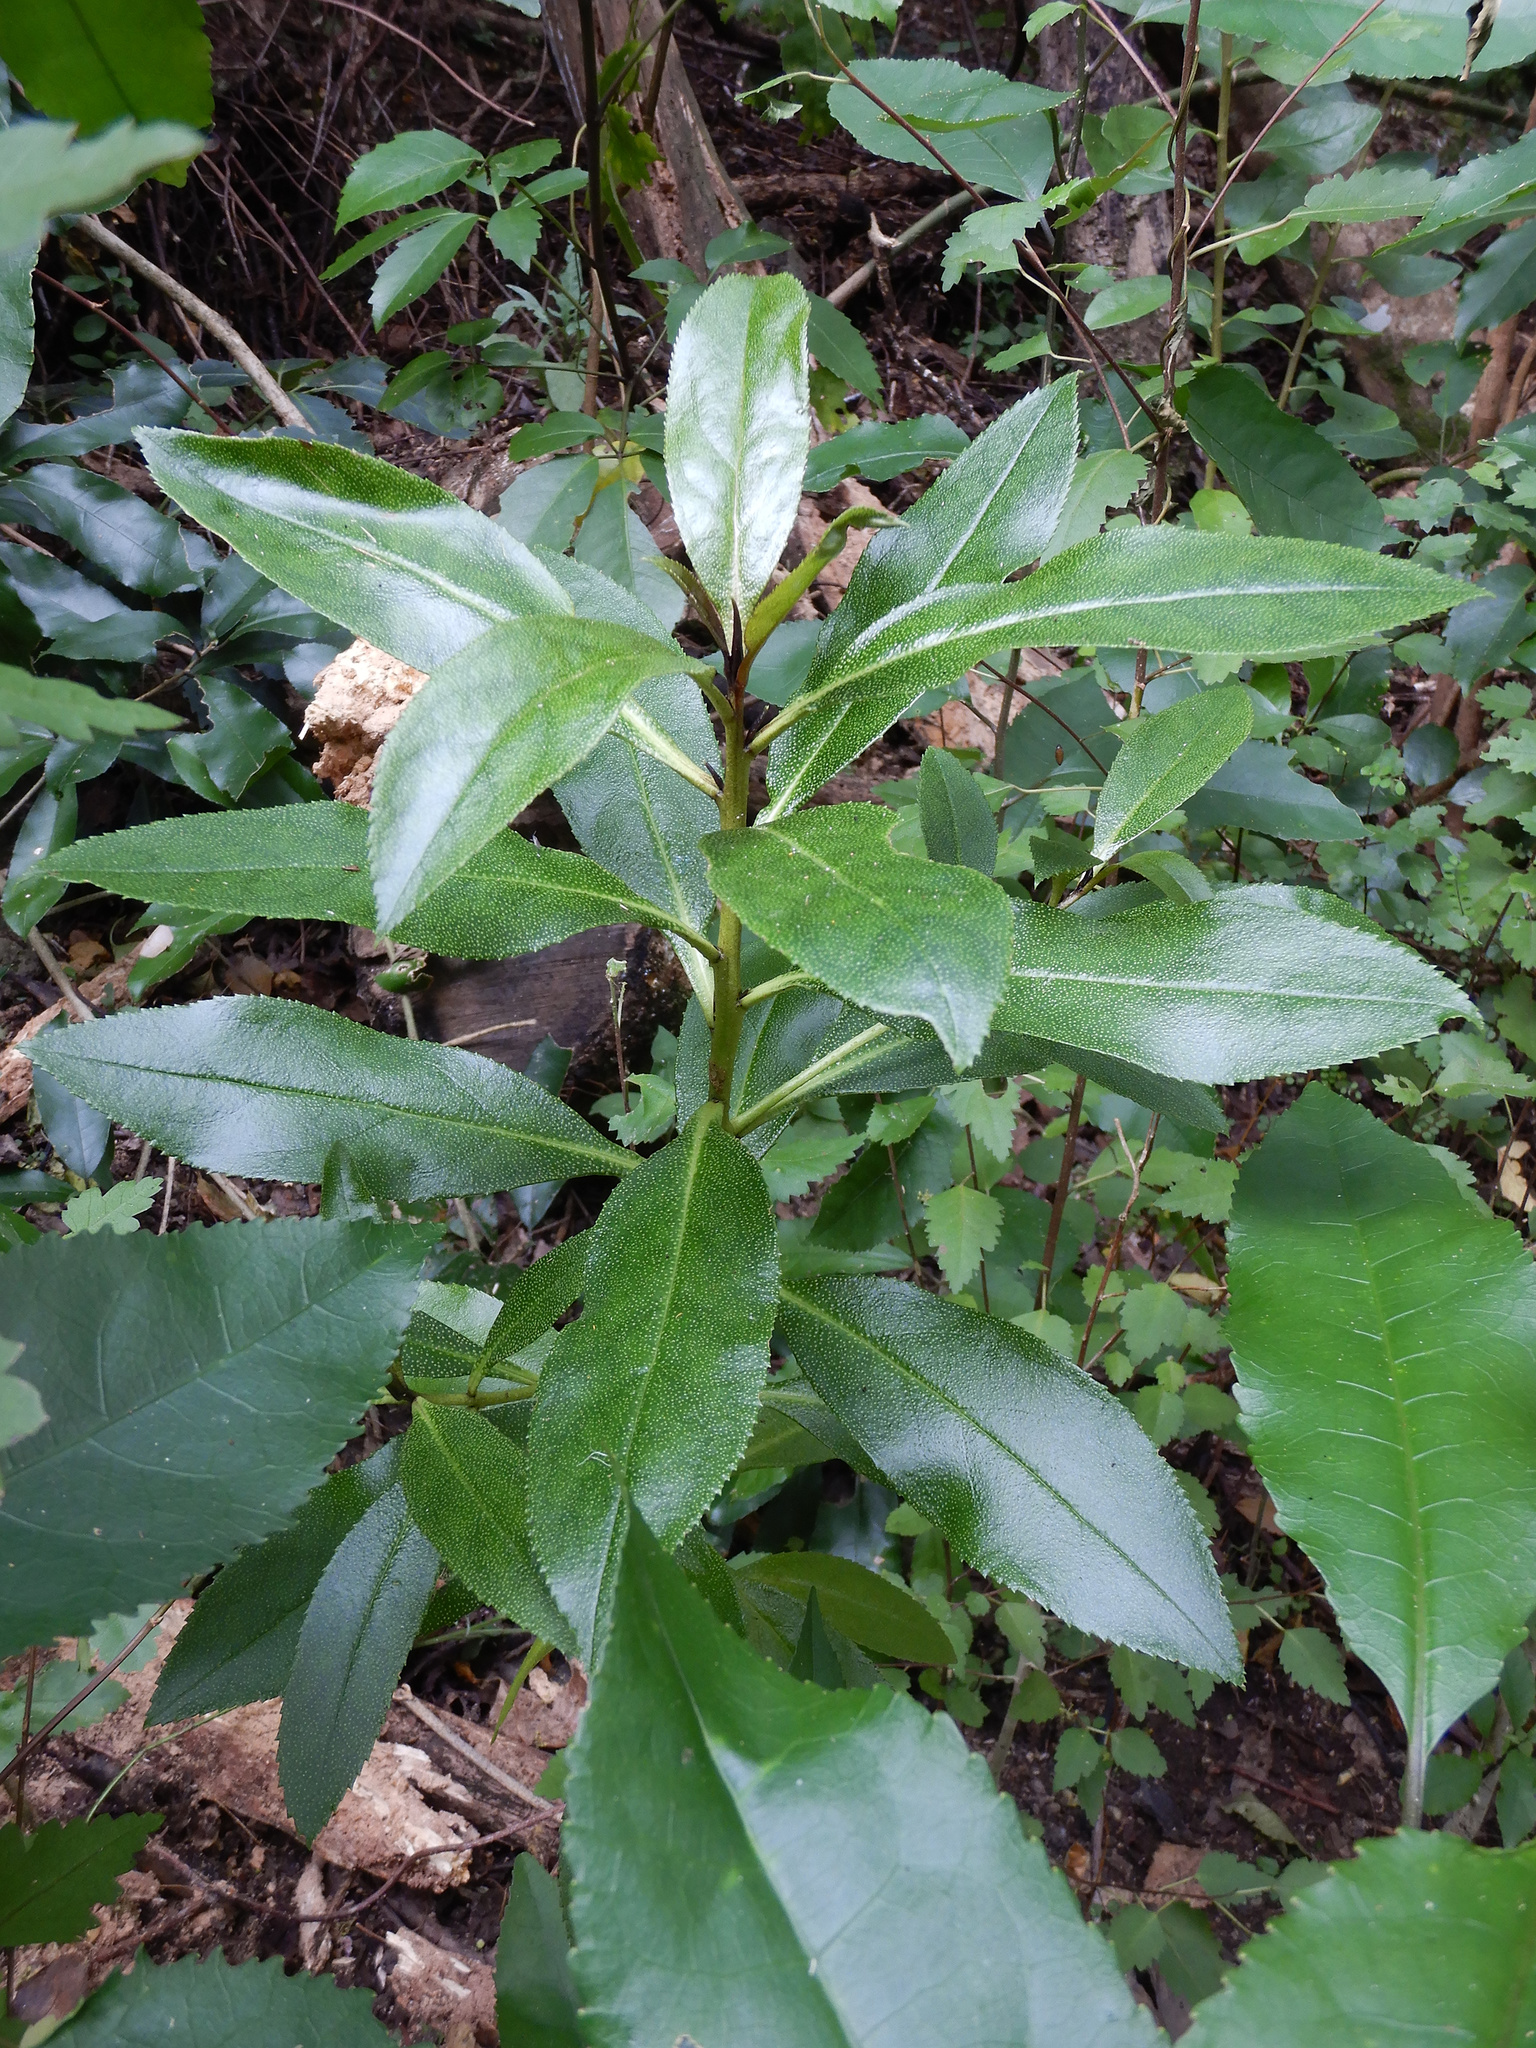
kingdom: Plantae
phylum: Tracheophyta
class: Magnoliopsida
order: Lamiales
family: Scrophulariaceae
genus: Myoporum
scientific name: Myoporum laetum
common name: Ngaio tree
